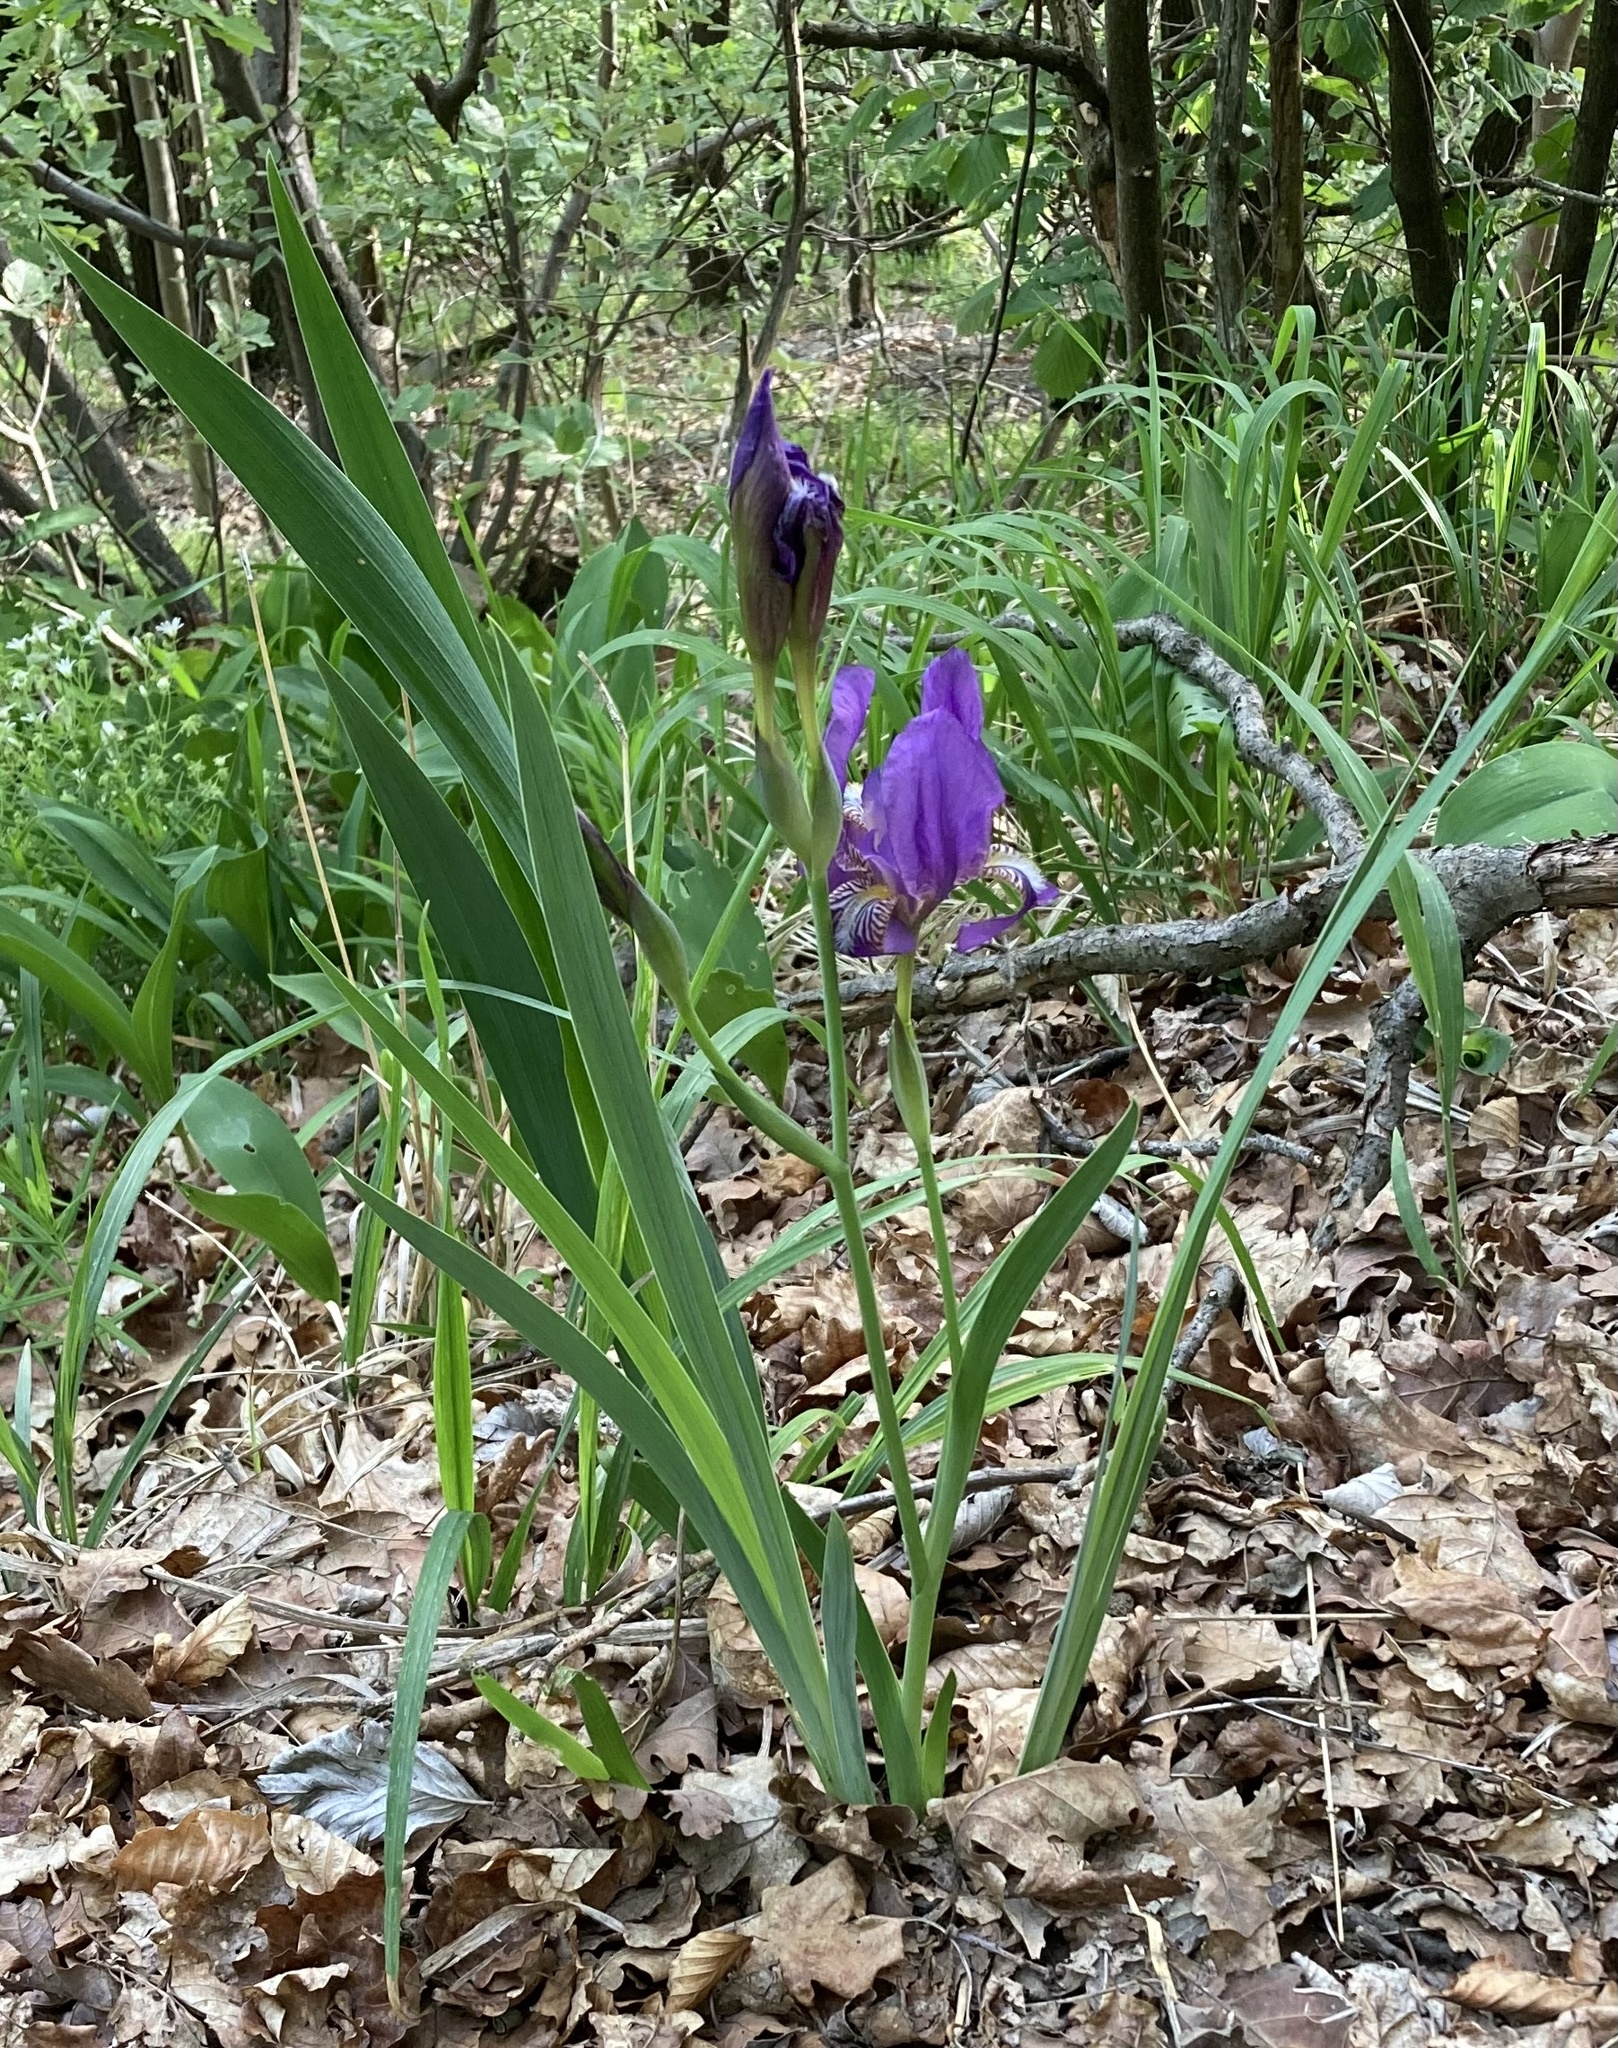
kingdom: Plantae
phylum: Tracheophyta
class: Liliopsida
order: Asparagales
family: Iridaceae
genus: Iris
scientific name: Iris aphylla
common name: Stool iris
